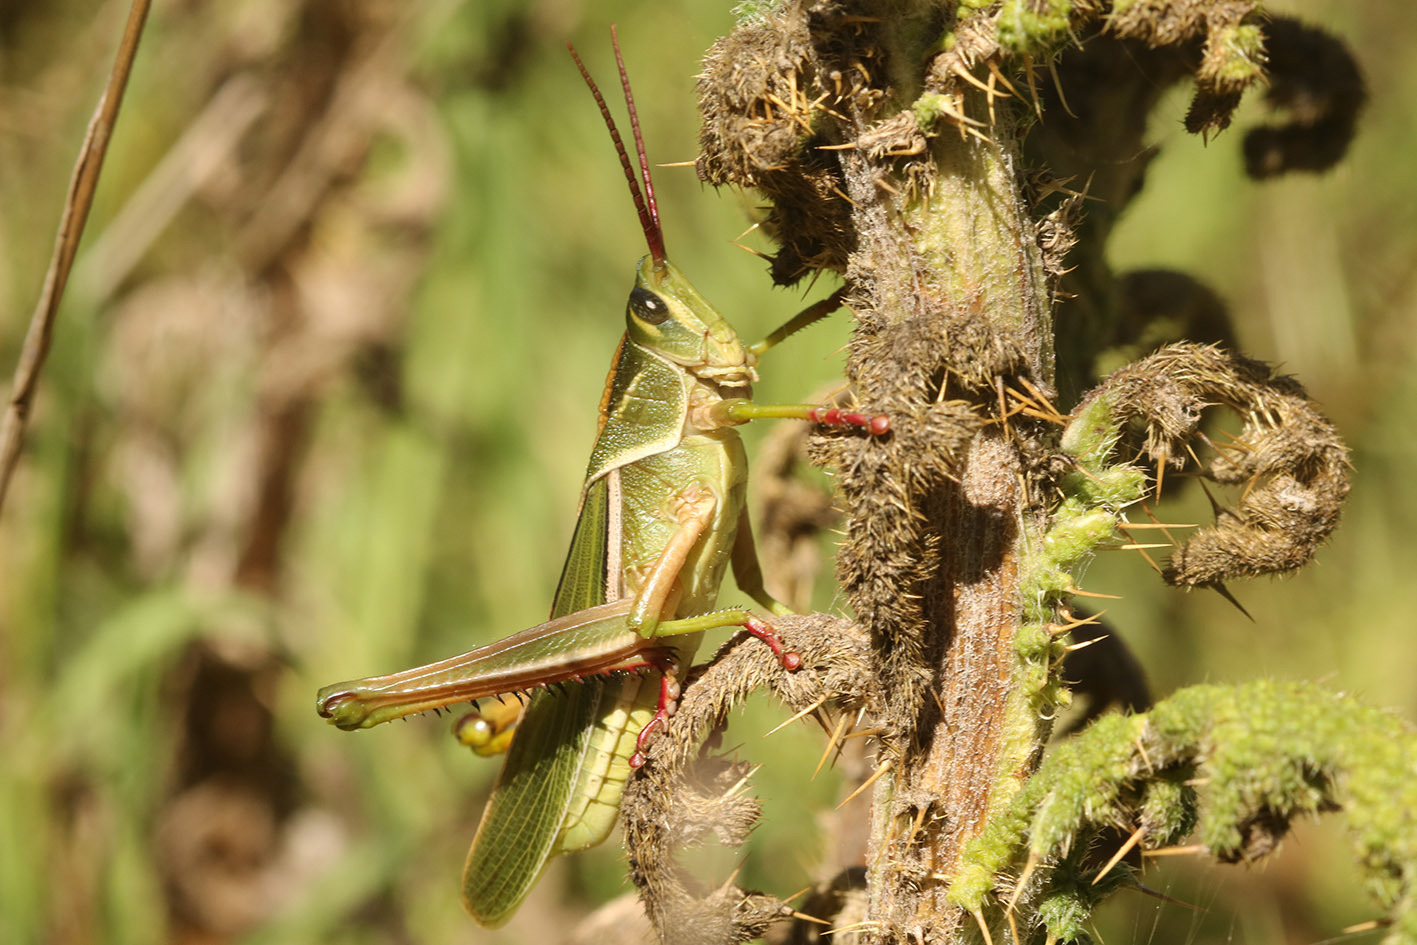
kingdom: Animalia
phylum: Arthropoda
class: Insecta
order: Orthoptera
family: Romaleidae
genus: Staleochlora
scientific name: Staleochlora viridicata
